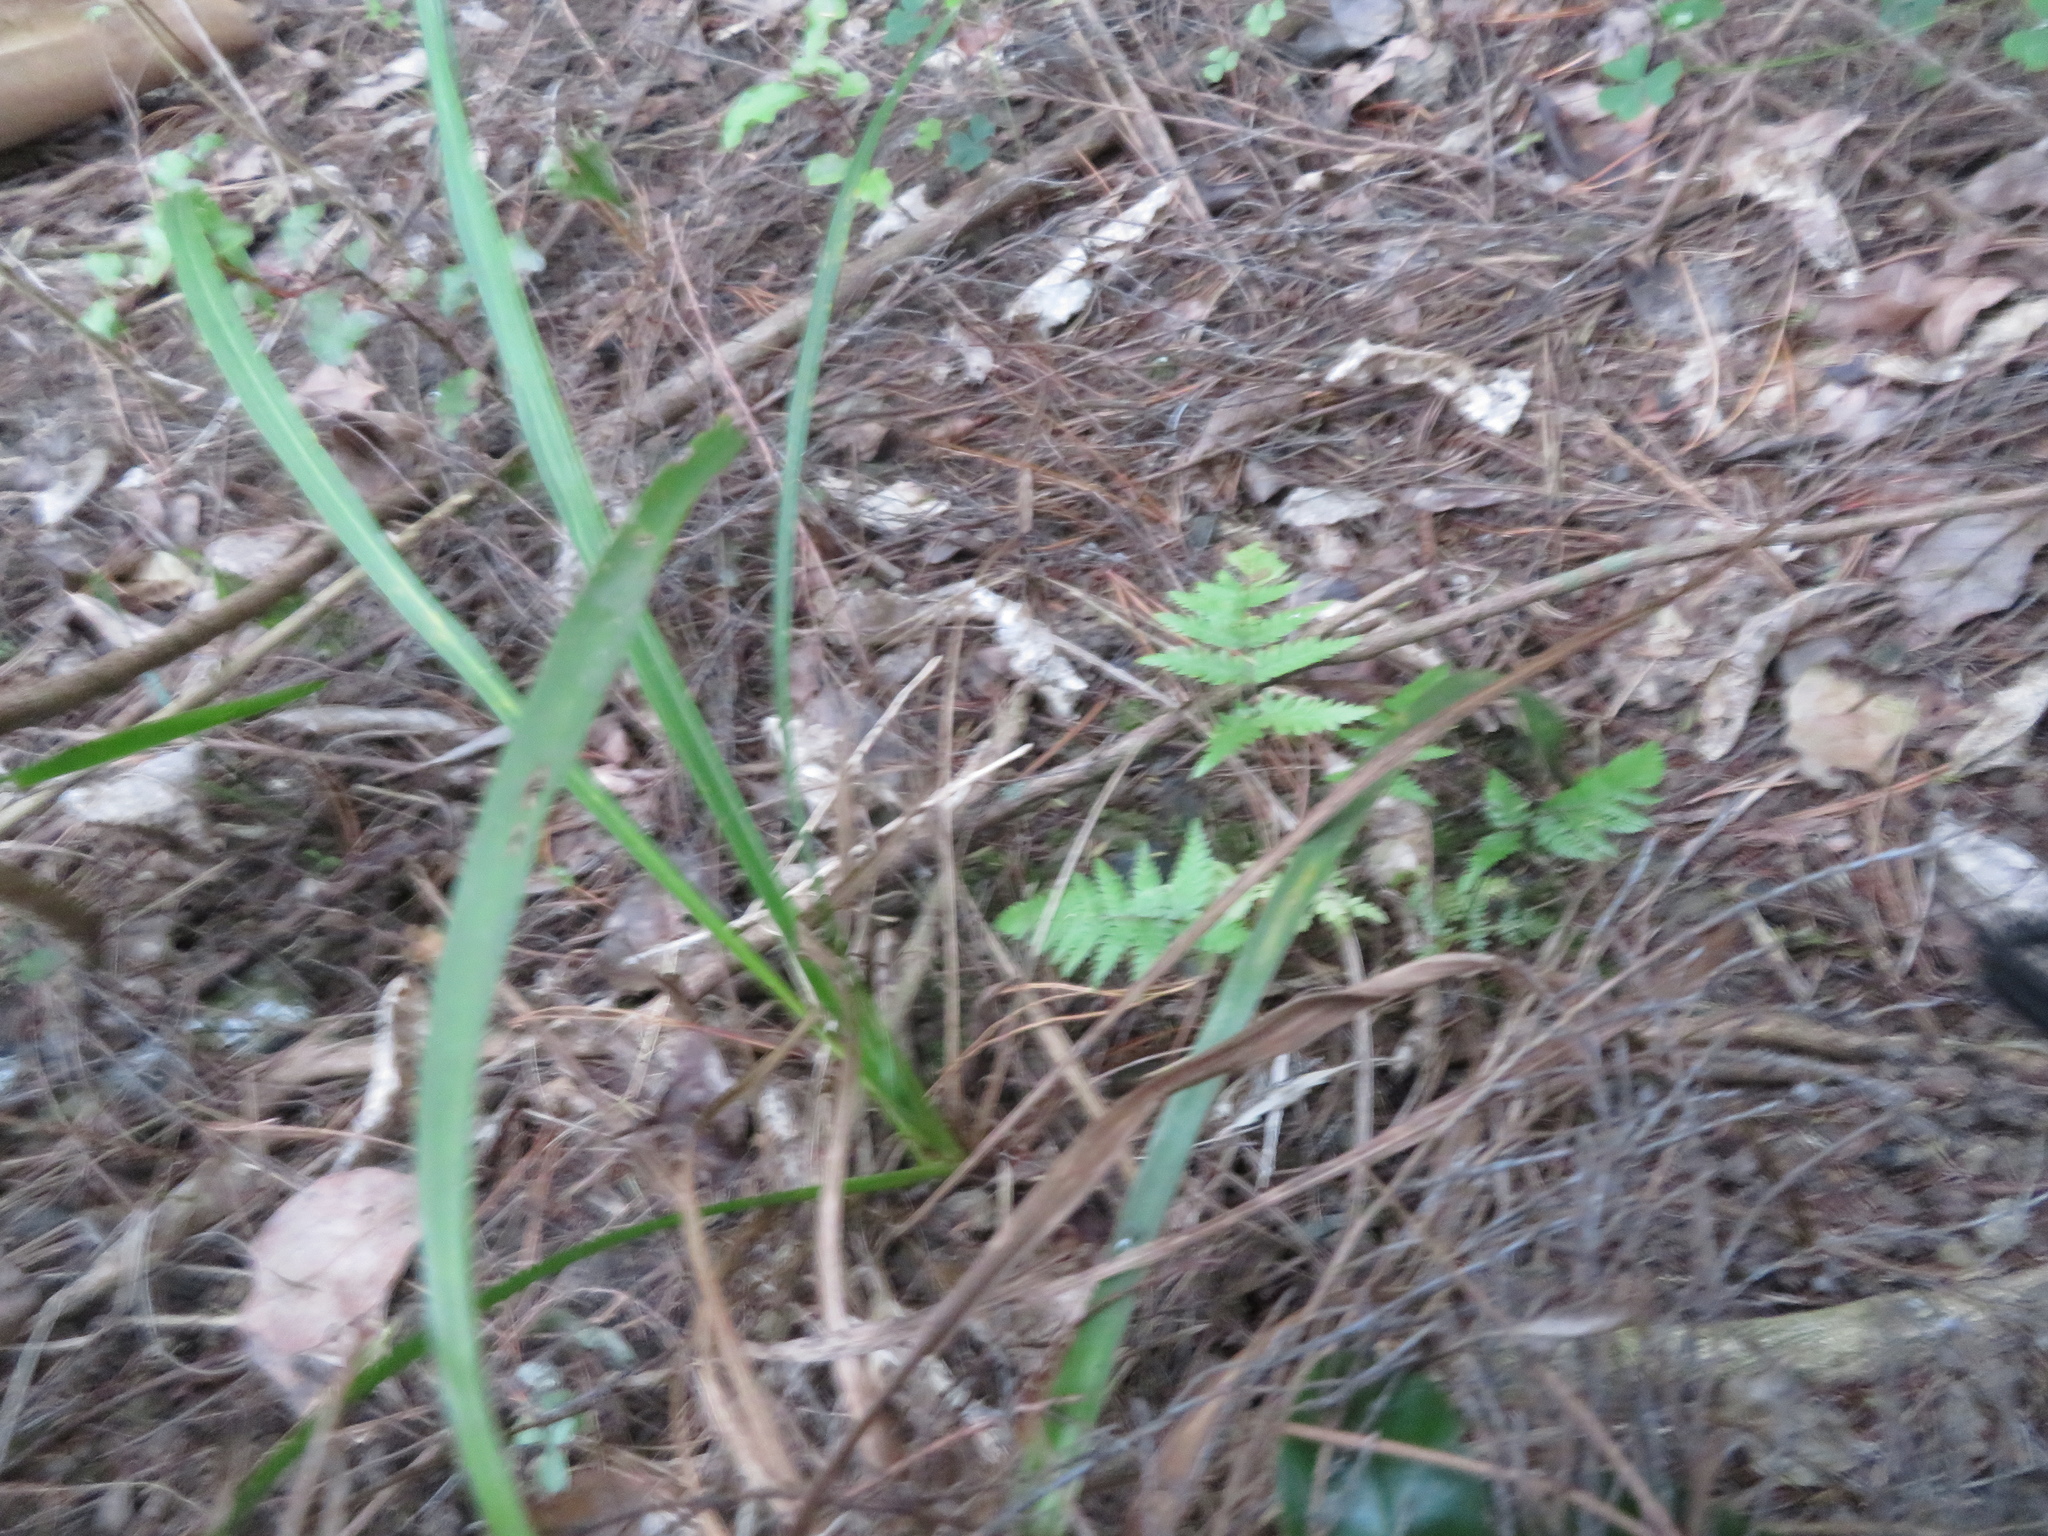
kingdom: Plantae
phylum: Tracheophyta
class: Liliopsida
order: Asparagales
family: Asparagaceae
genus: Cordyline
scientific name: Cordyline australis
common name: Cabbage-palm
